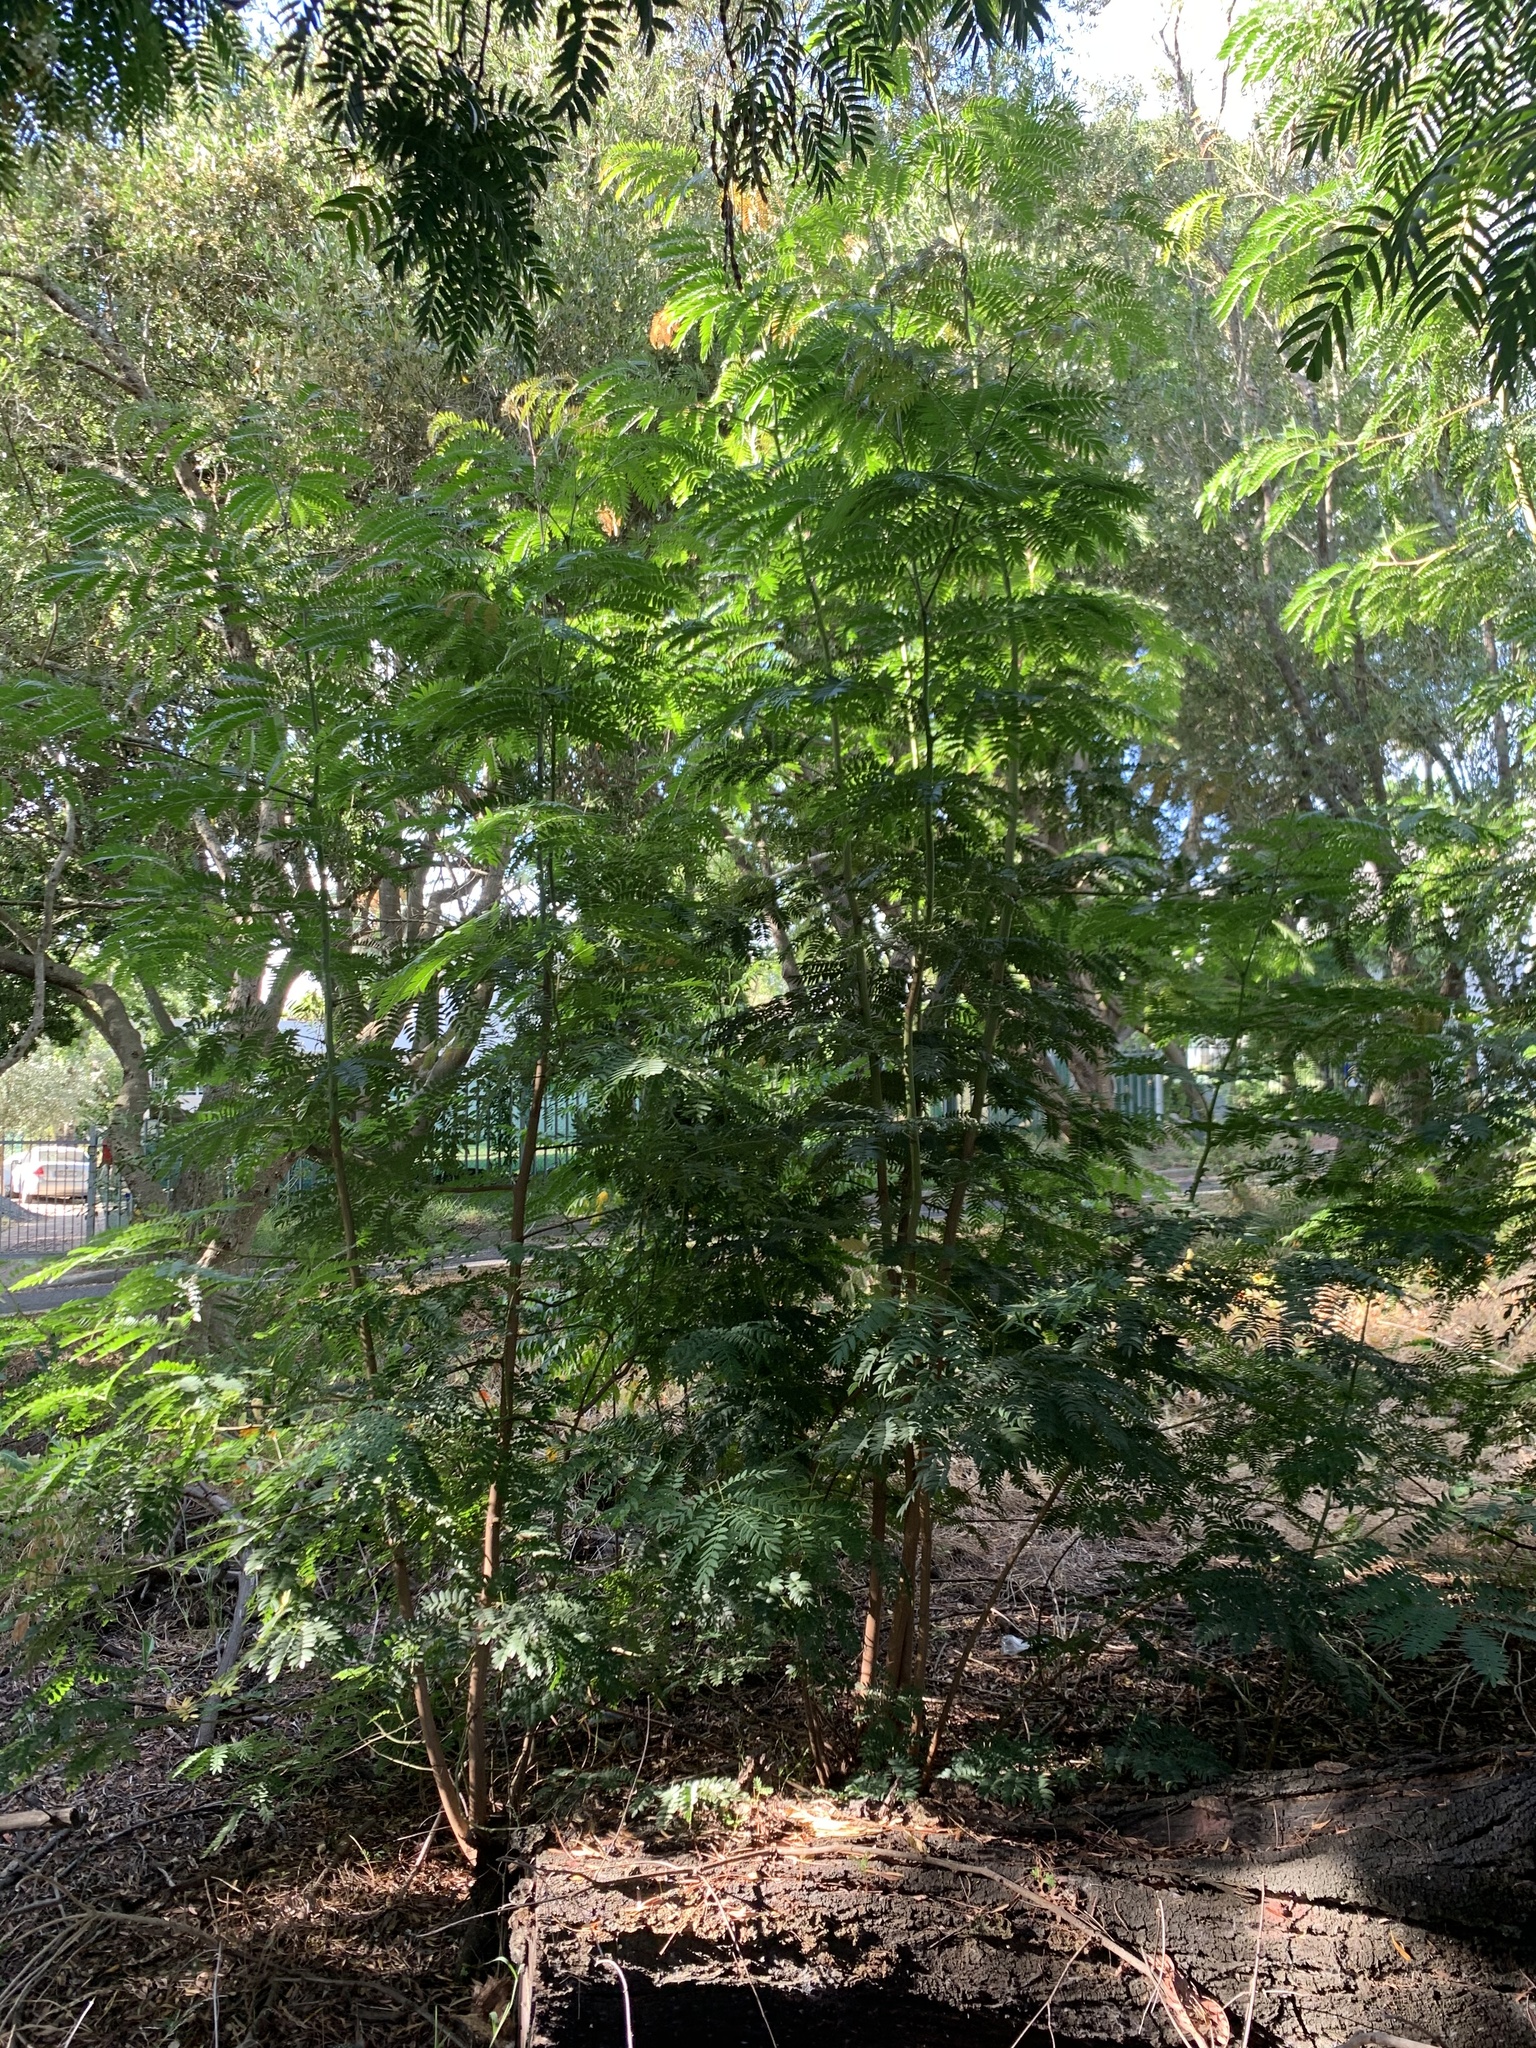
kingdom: Plantae
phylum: Tracheophyta
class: Magnoliopsida
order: Fabales
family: Fabaceae
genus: Acacia
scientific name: Acacia elata
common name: Cedar wattle
